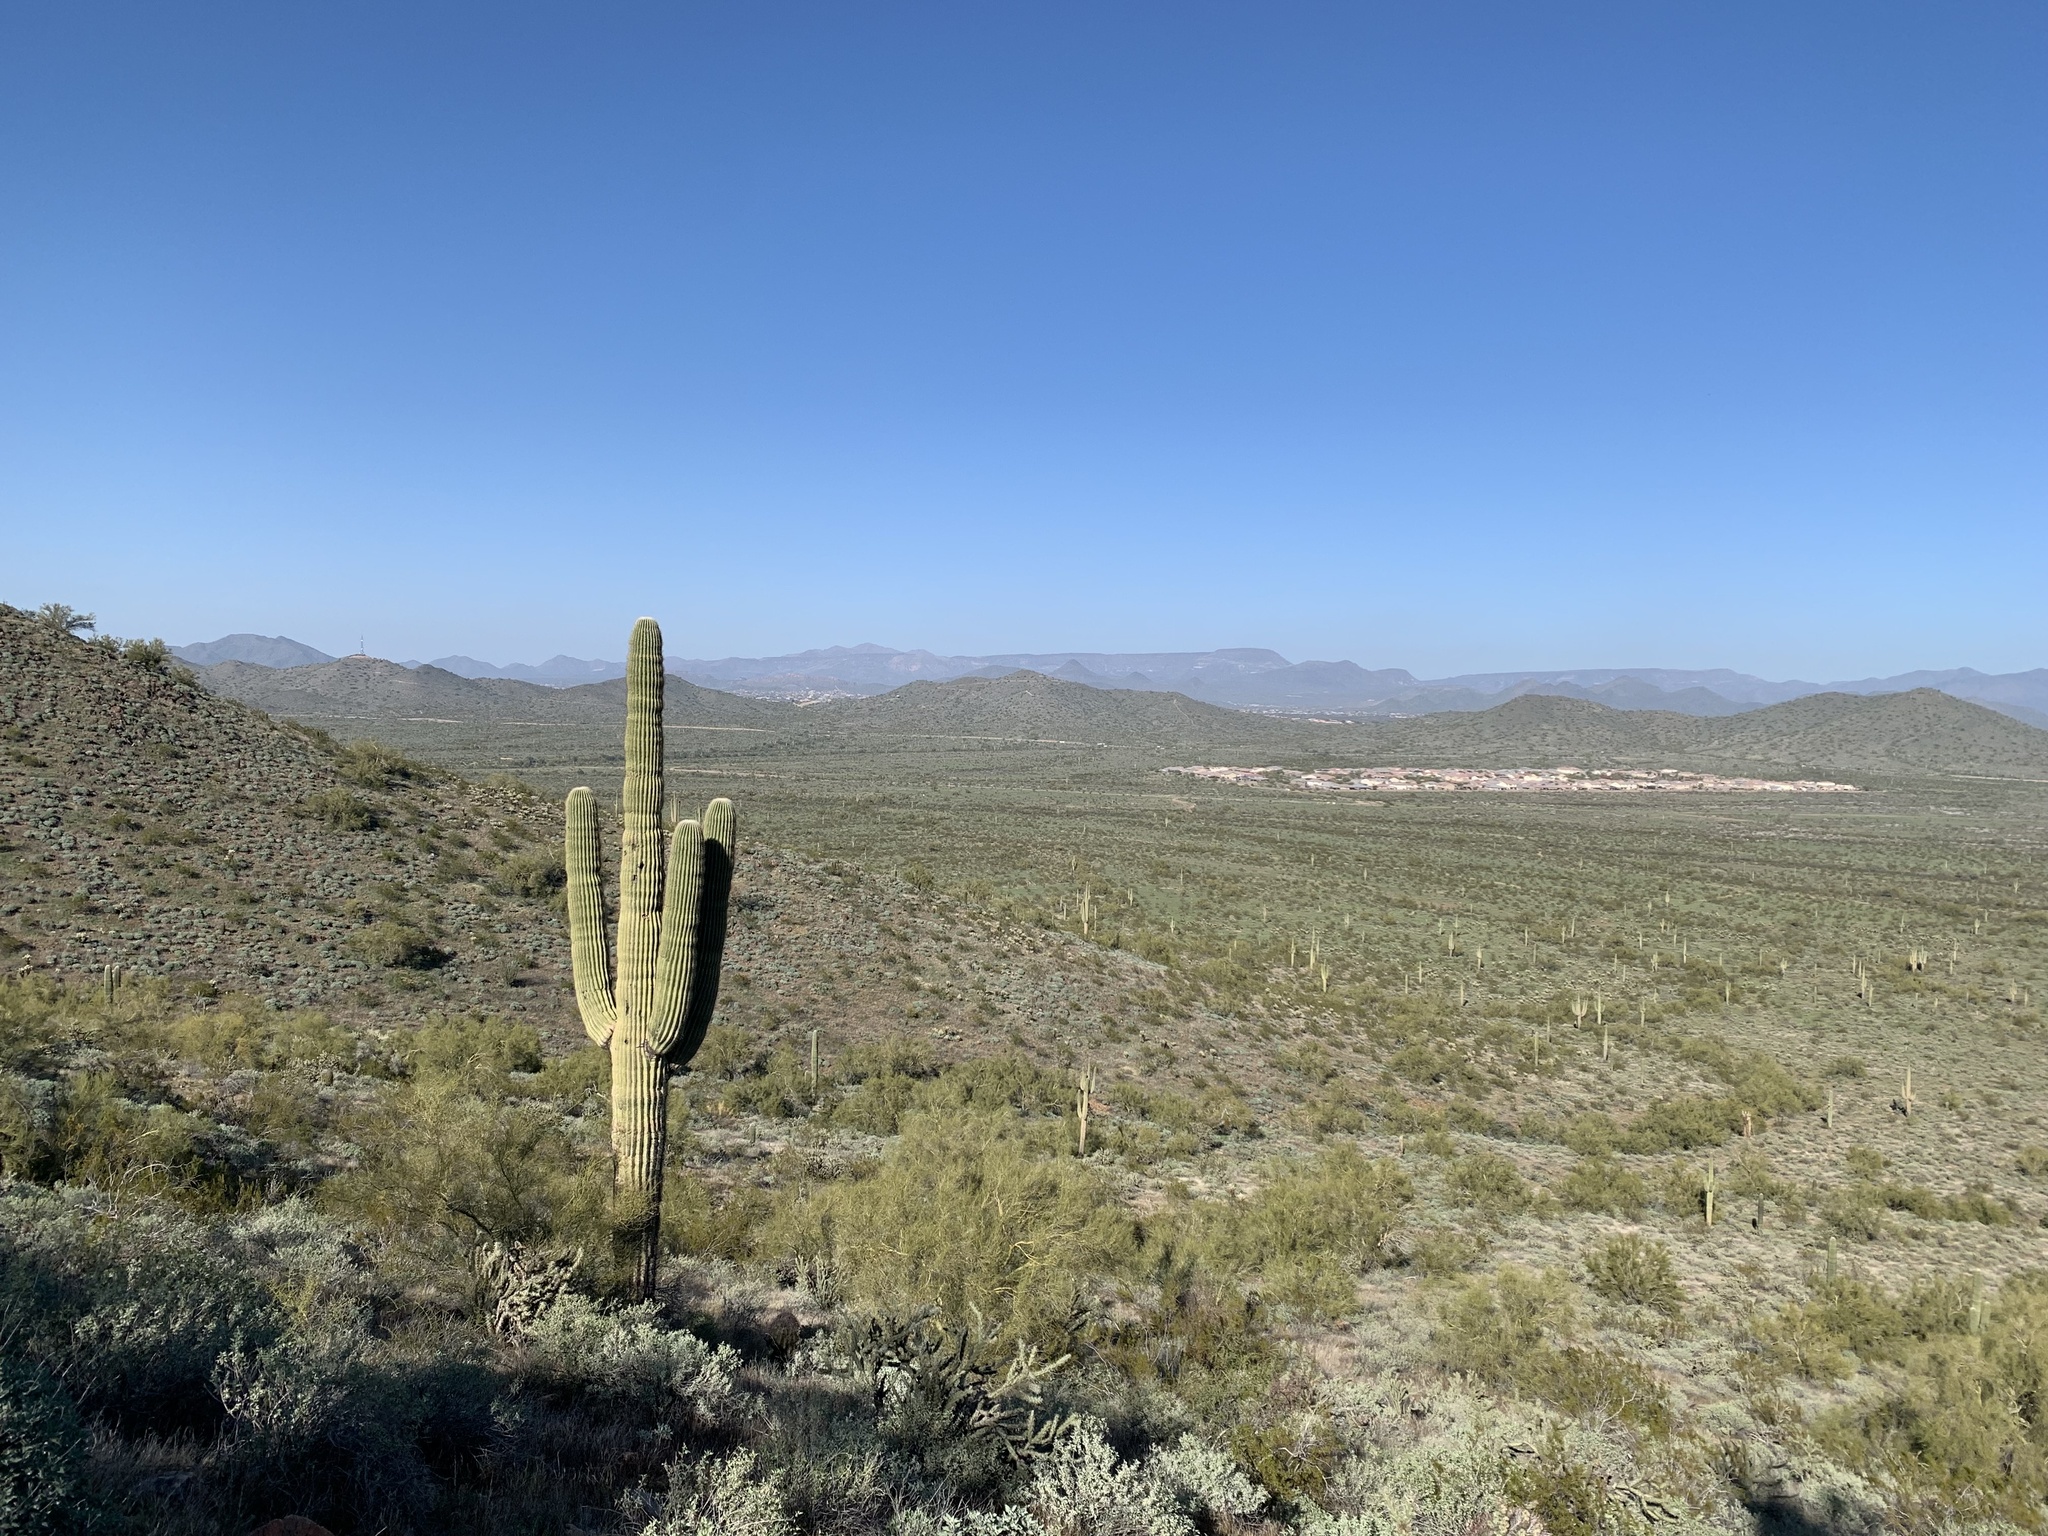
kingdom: Plantae
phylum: Tracheophyta
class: Magnoliopsida
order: Caryophyllales
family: Cactaceae
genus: Carnegiea
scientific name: Carnegiea gigantea
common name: Saguaro
